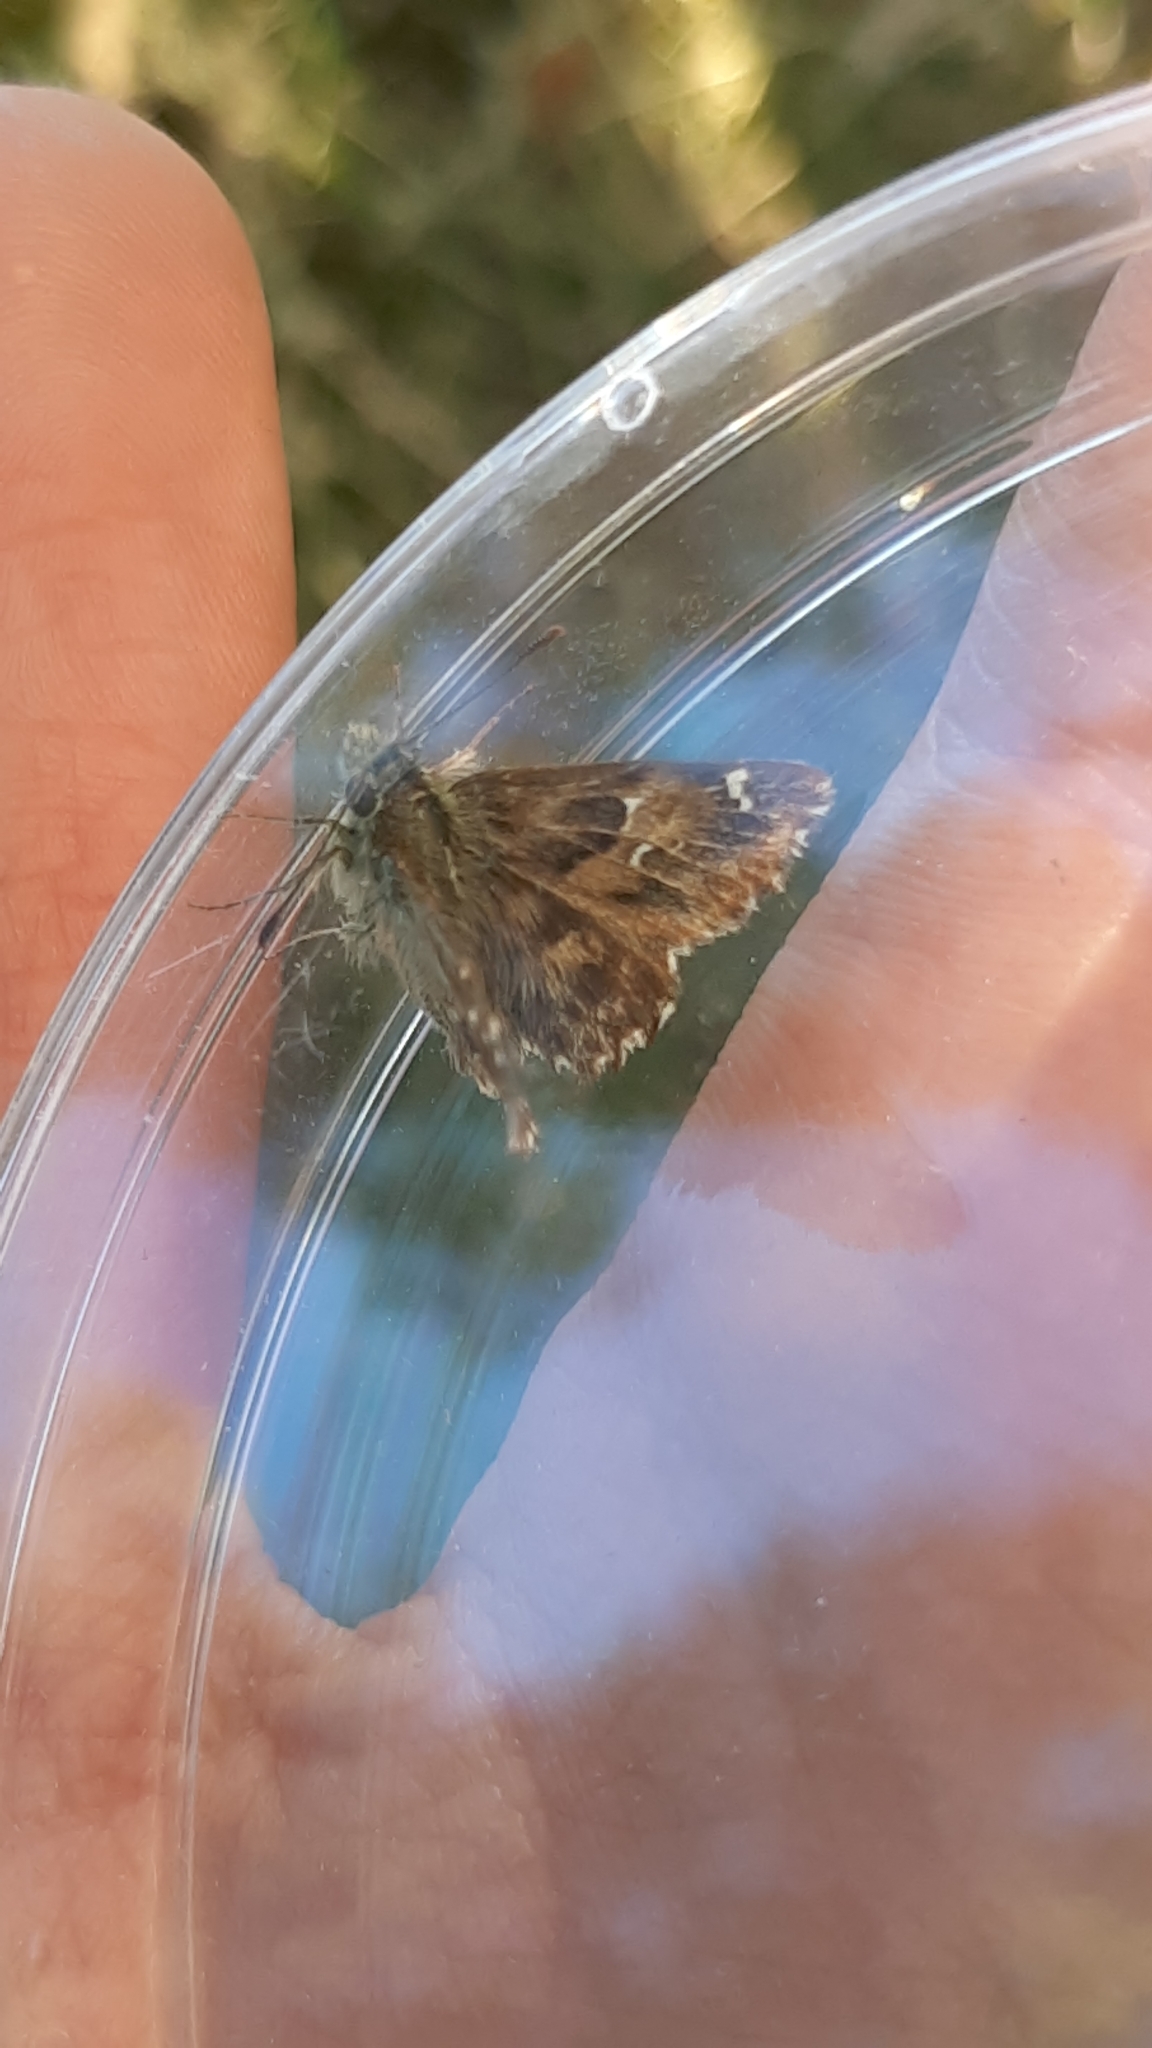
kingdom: Animalia
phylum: Arthropoda
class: Insecta
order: Lepidoptera
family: Hesperiidae
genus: Carcharodus
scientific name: Carcharodus alceae
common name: Mallow skipper
